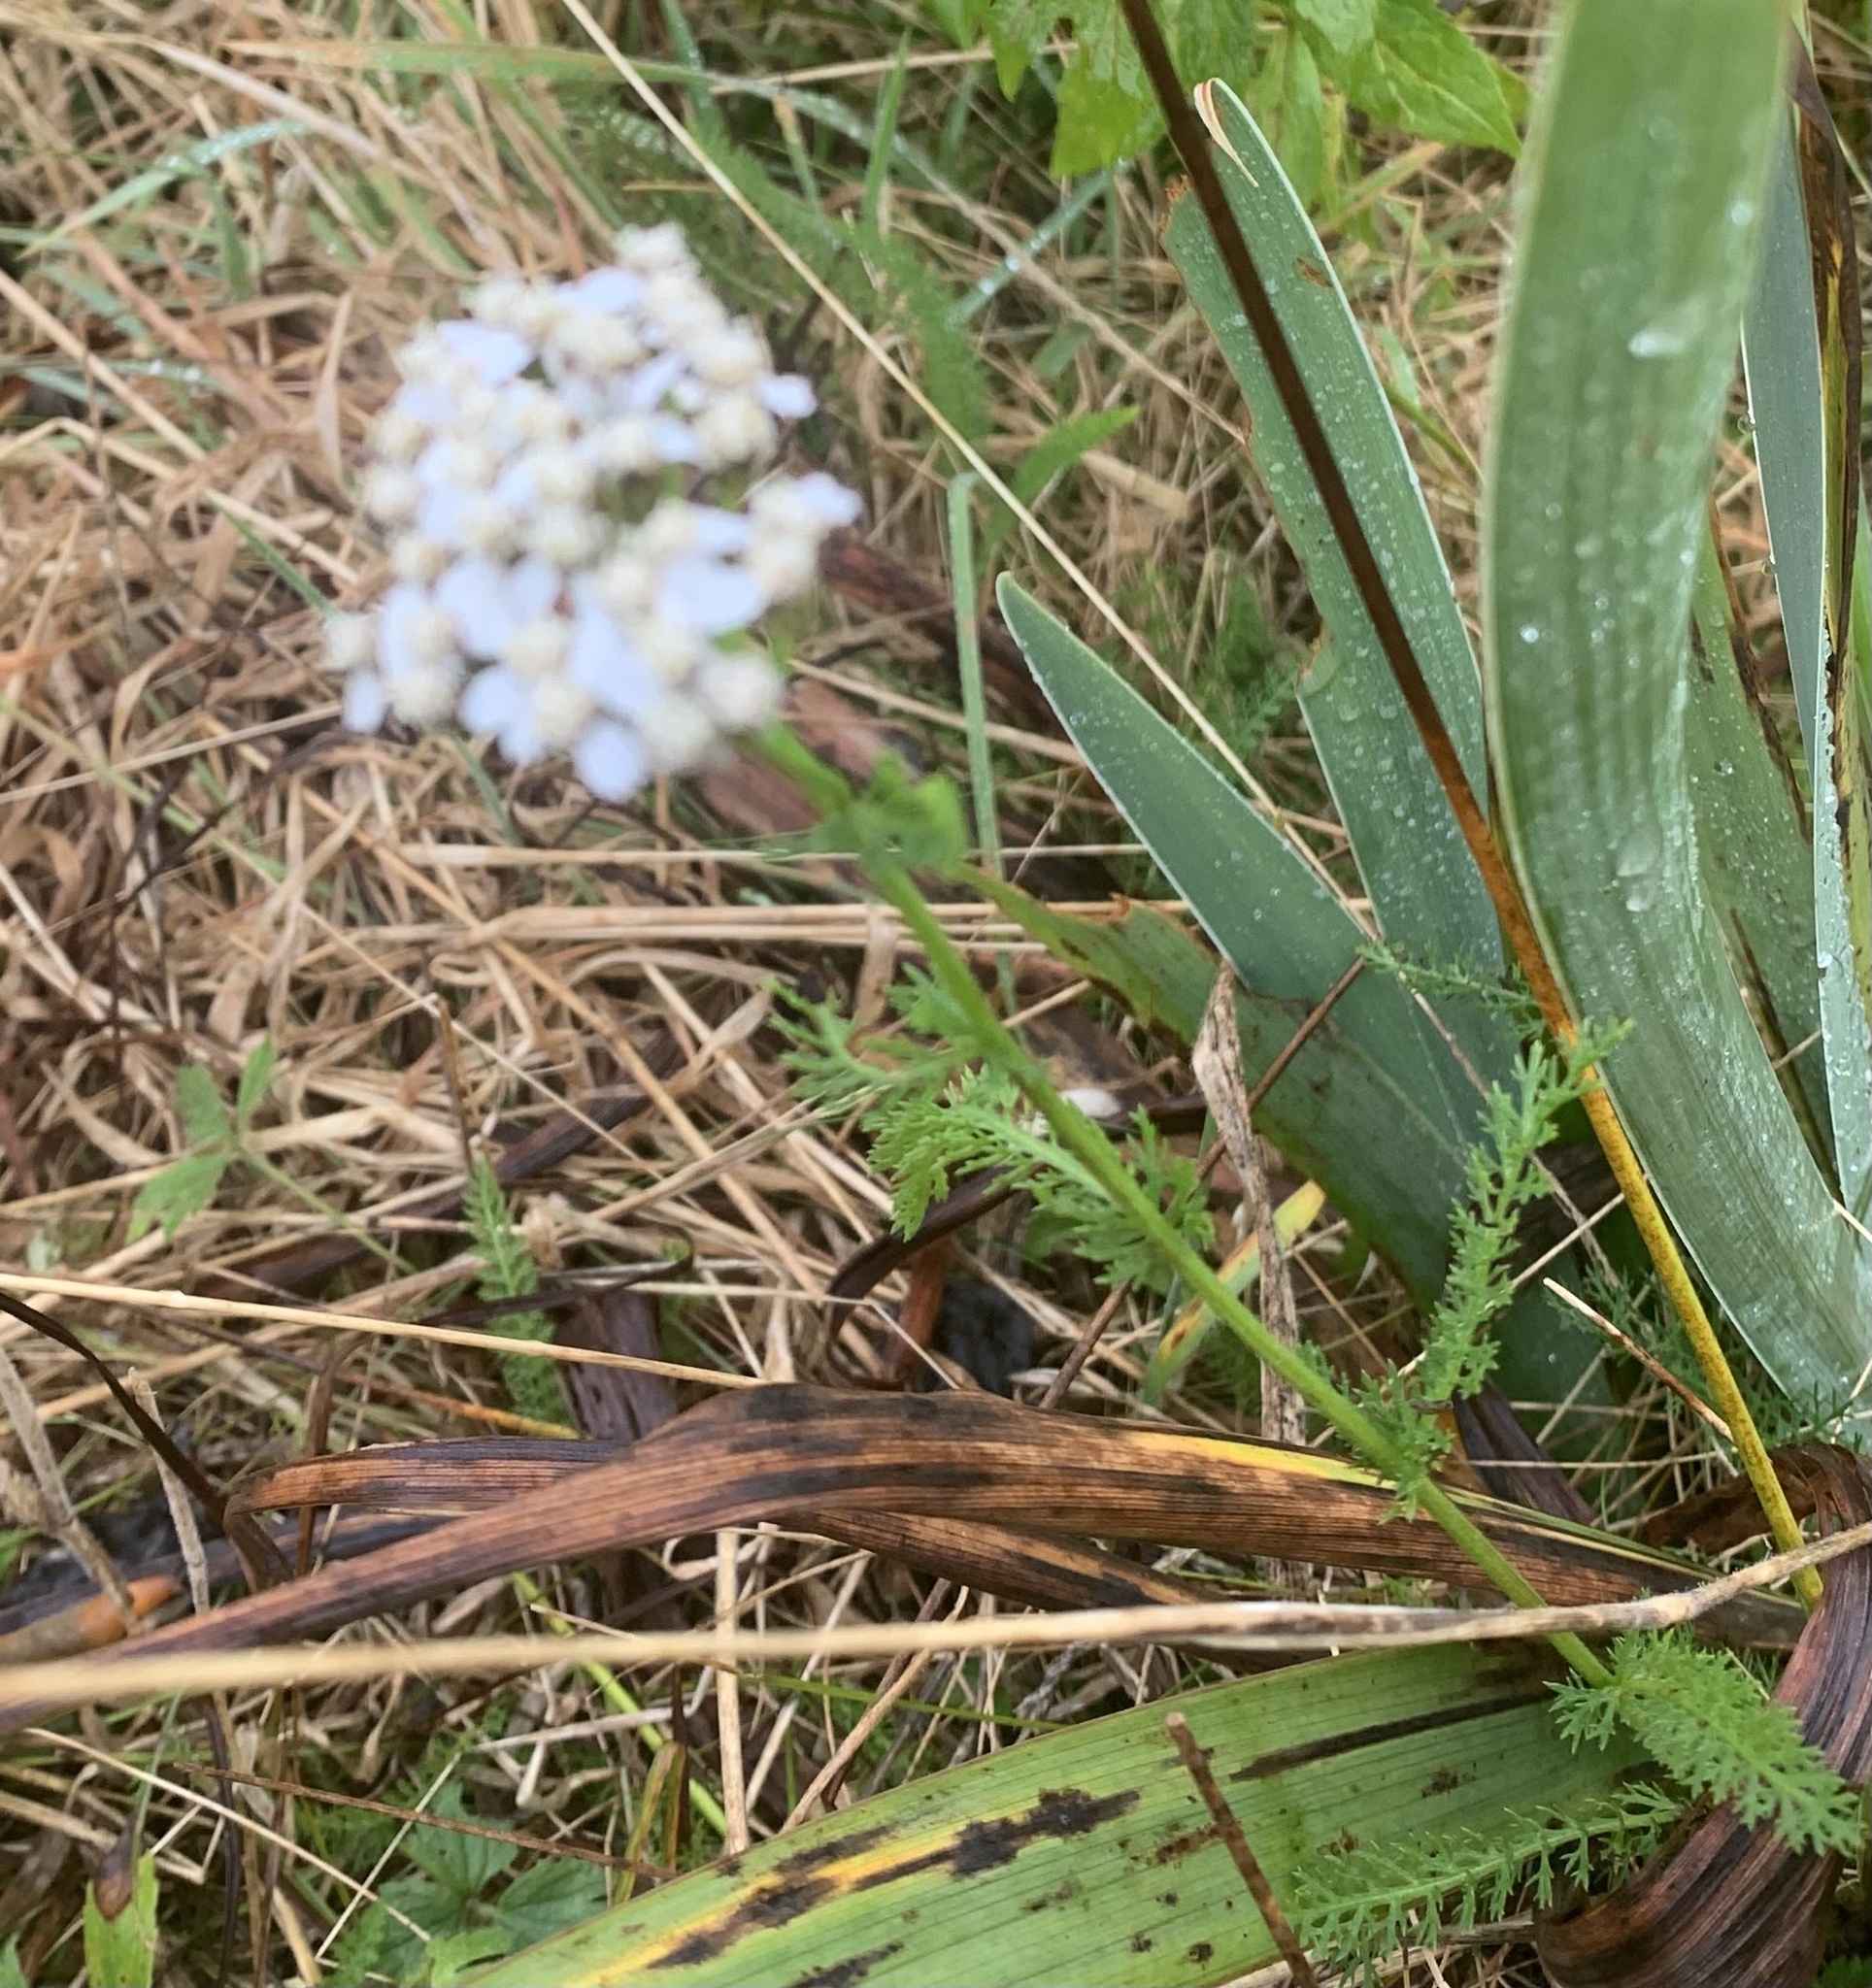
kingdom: Plantae
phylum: Tracheophyta
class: Magnoliopsida
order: Asterales
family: Asteraceae
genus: Achillea
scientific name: Achillea millefolium
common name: Yarrow
